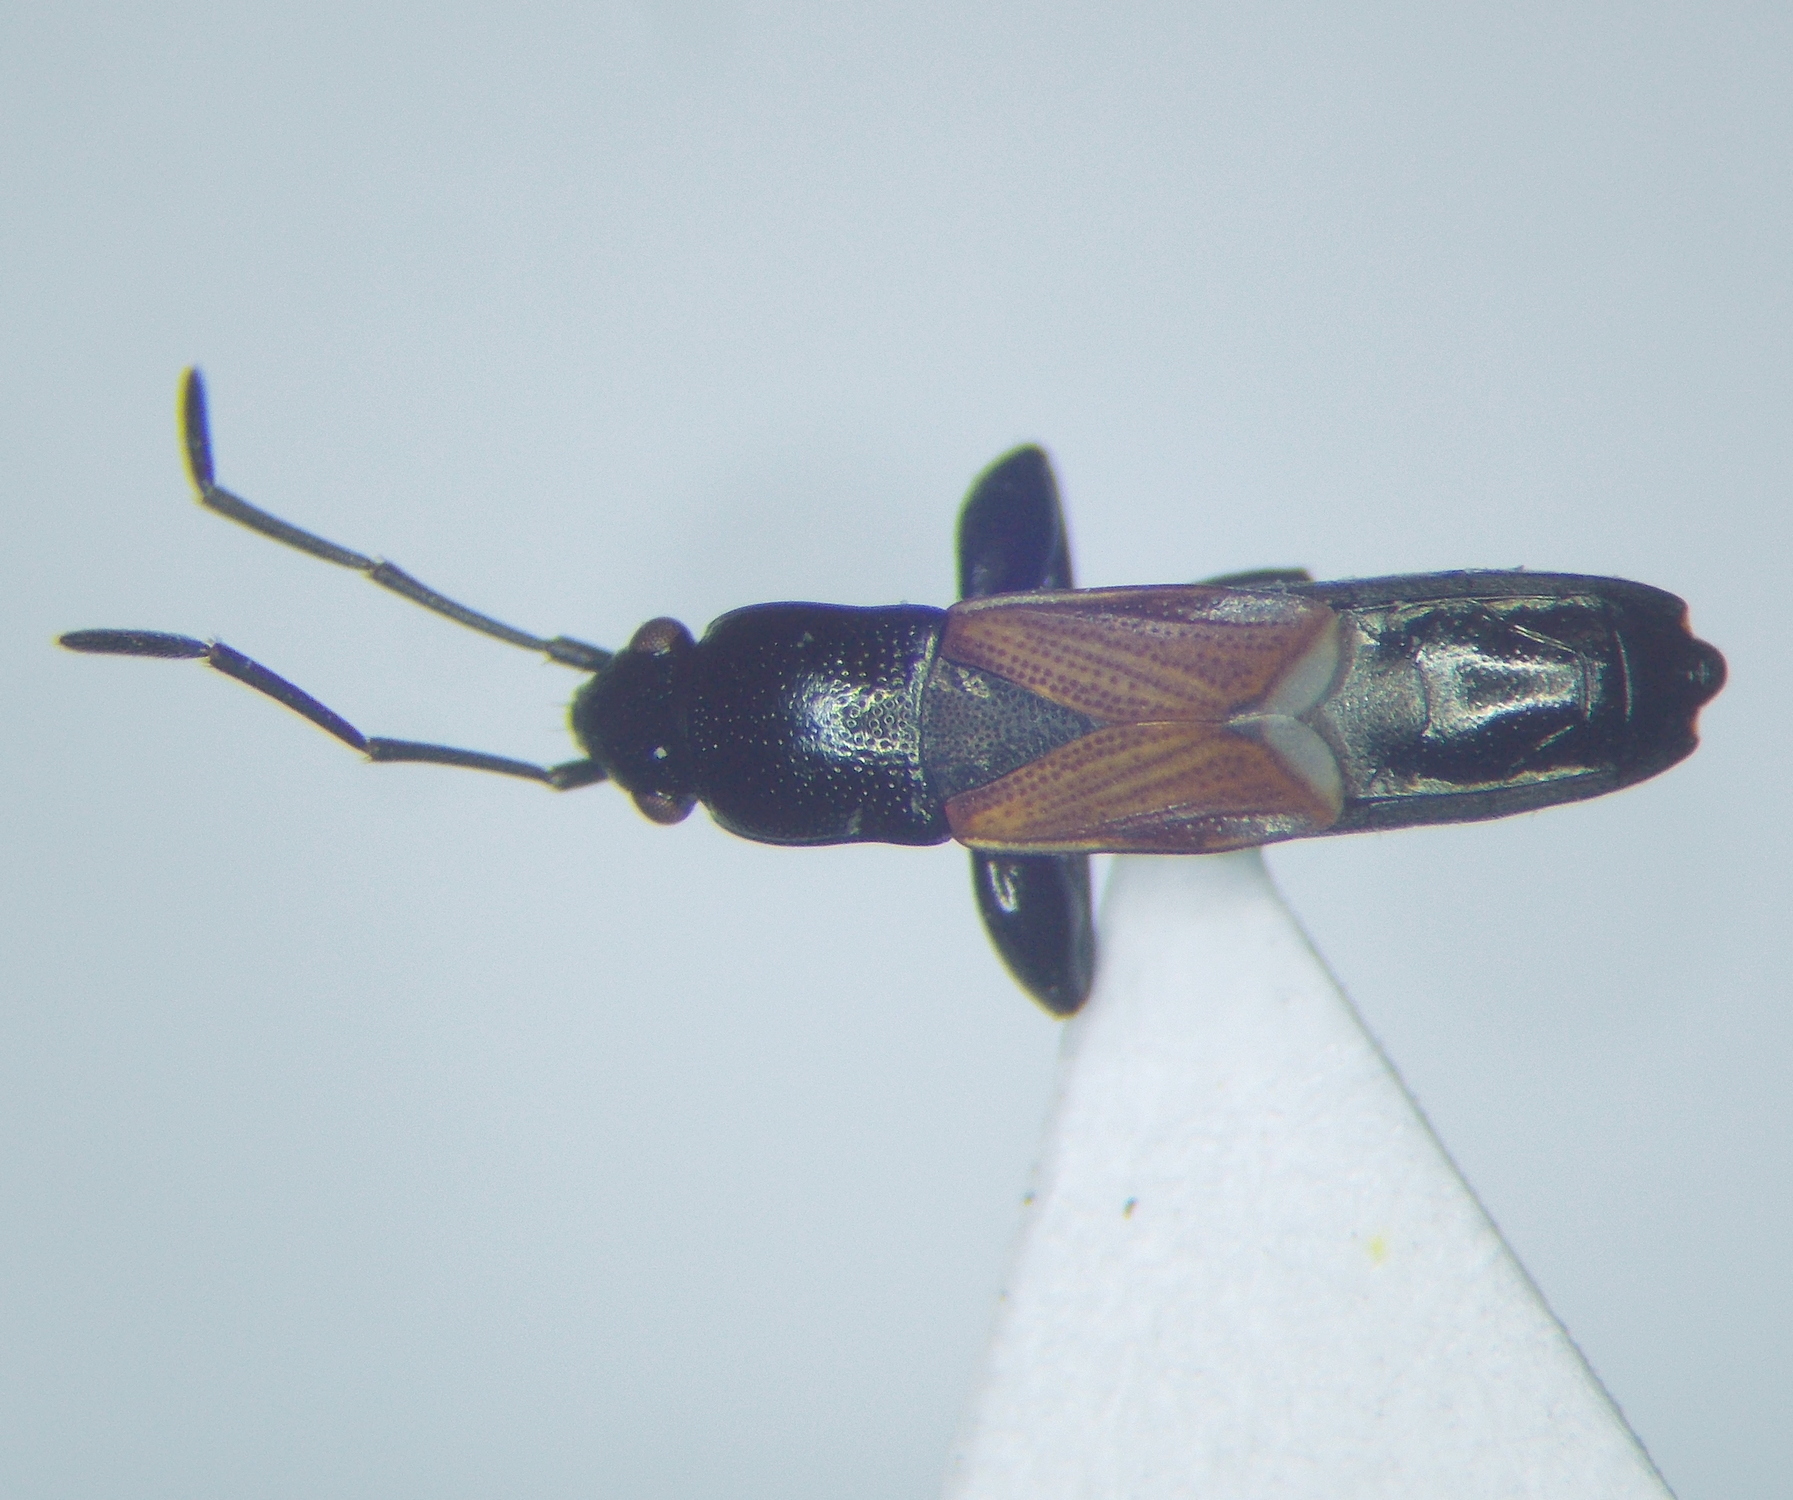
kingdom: Animalia
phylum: Arthropoda
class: Insecta
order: Hemiptera
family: Rhyparochromidae
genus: Pterotmetus
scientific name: Pterotmetus staphyliniformis
